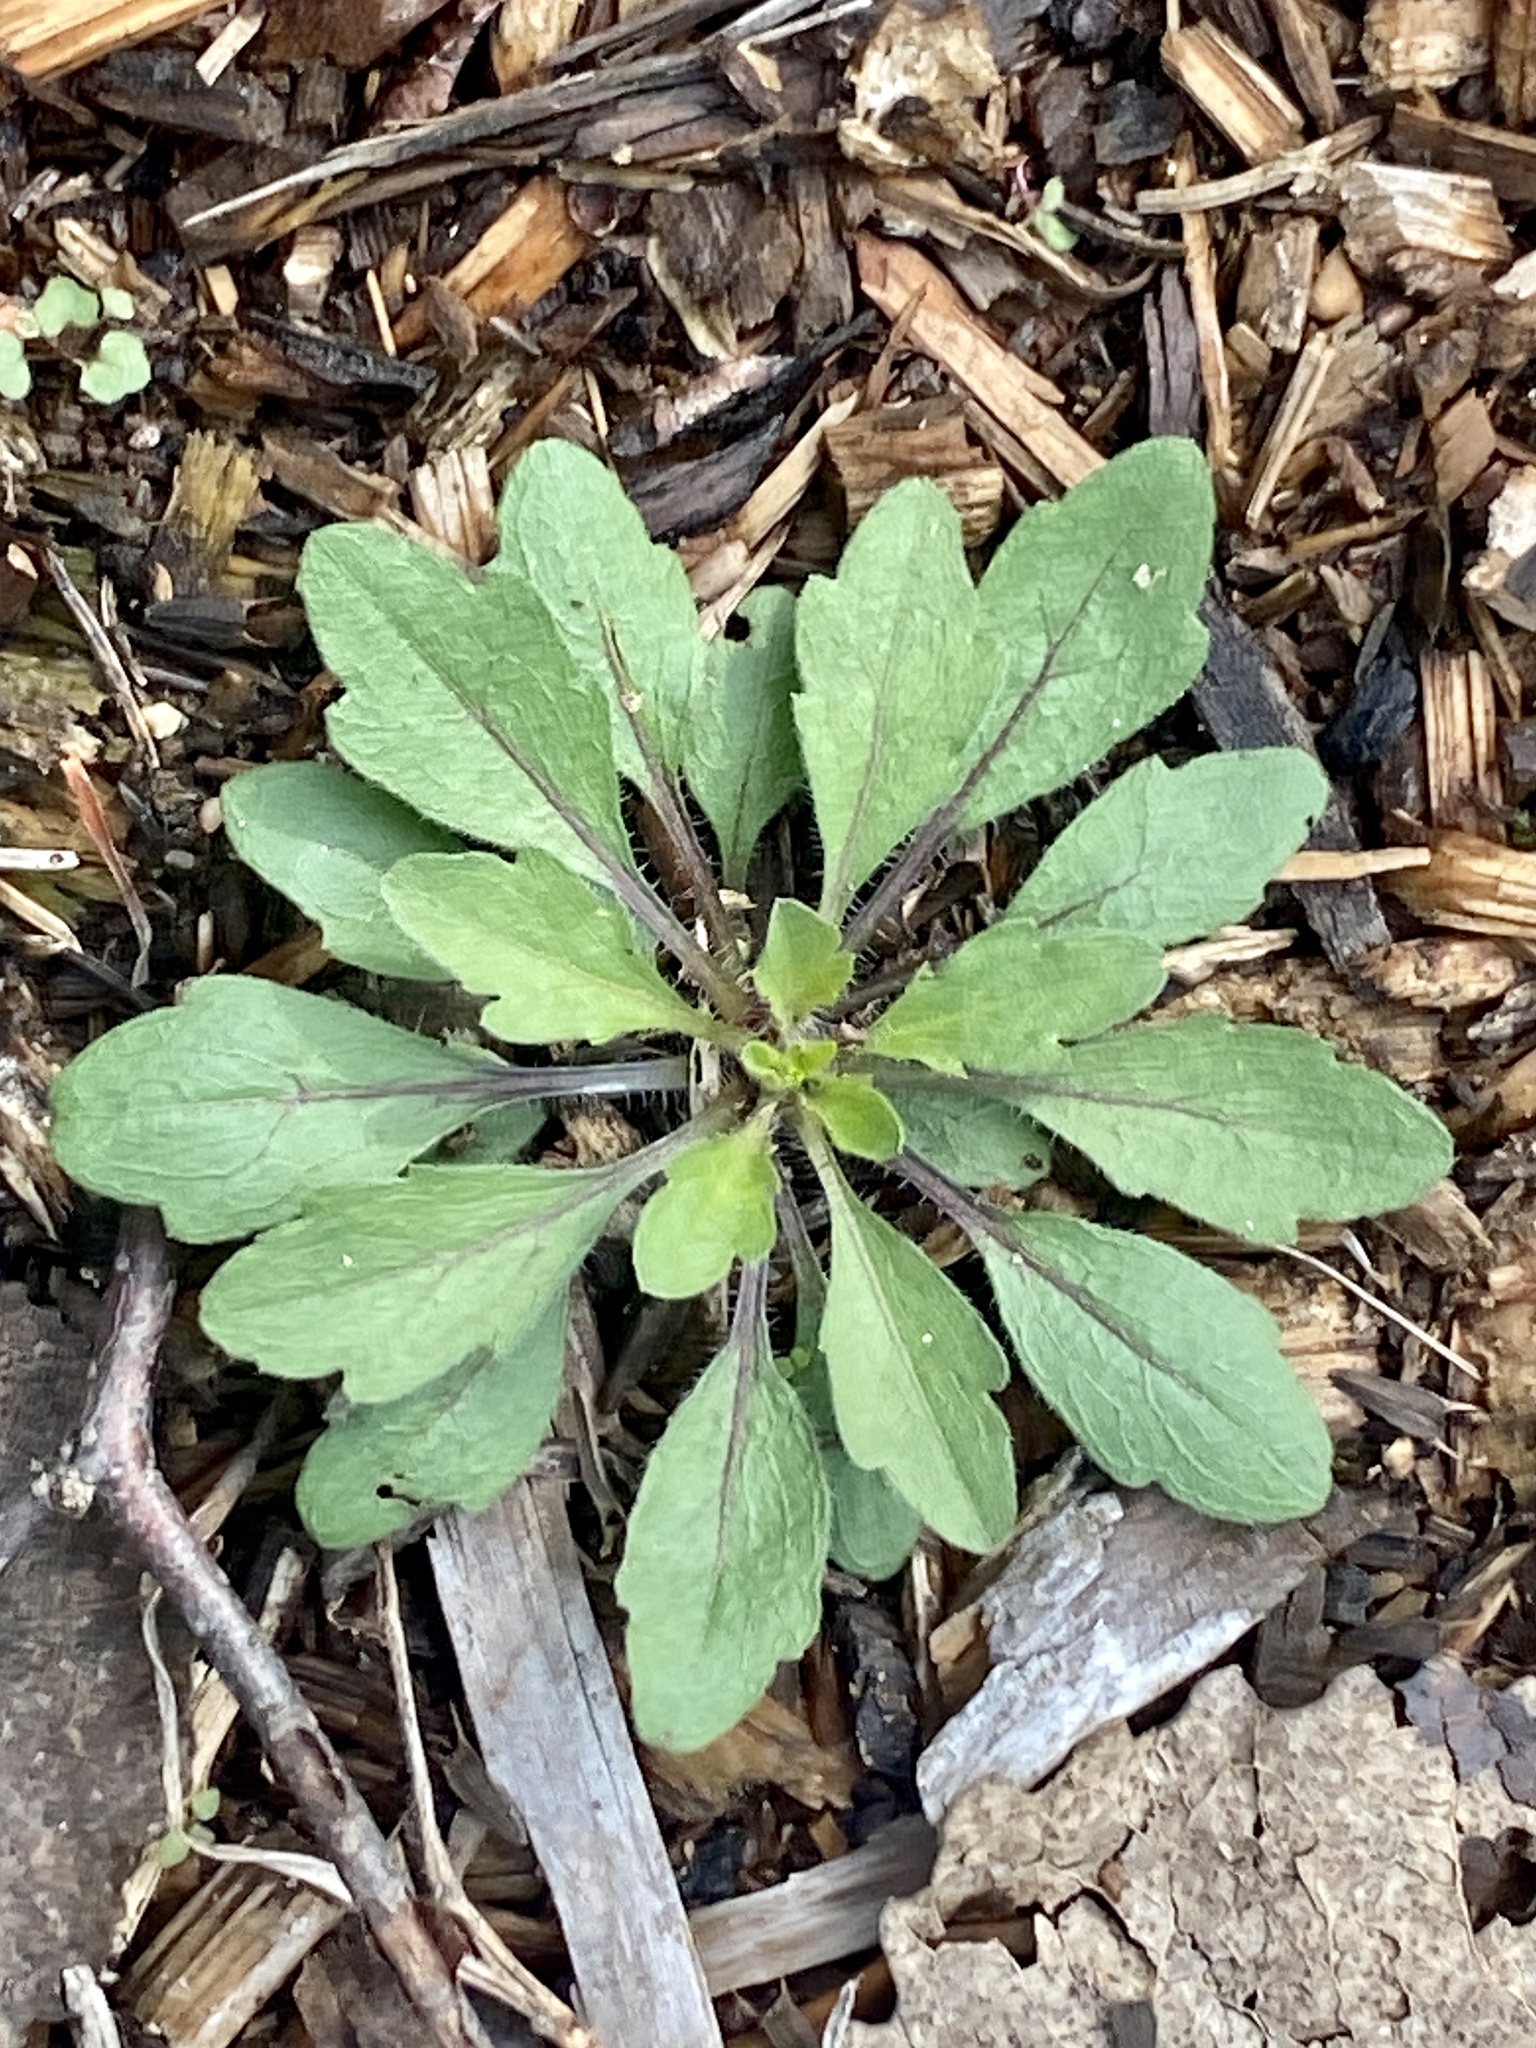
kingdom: Plantae
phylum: Tracheophyta
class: Magnoliopsida
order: Asterales
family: Asteraceae
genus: Erigeron
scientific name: Erigeron canadensis
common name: Canadian fleabane
